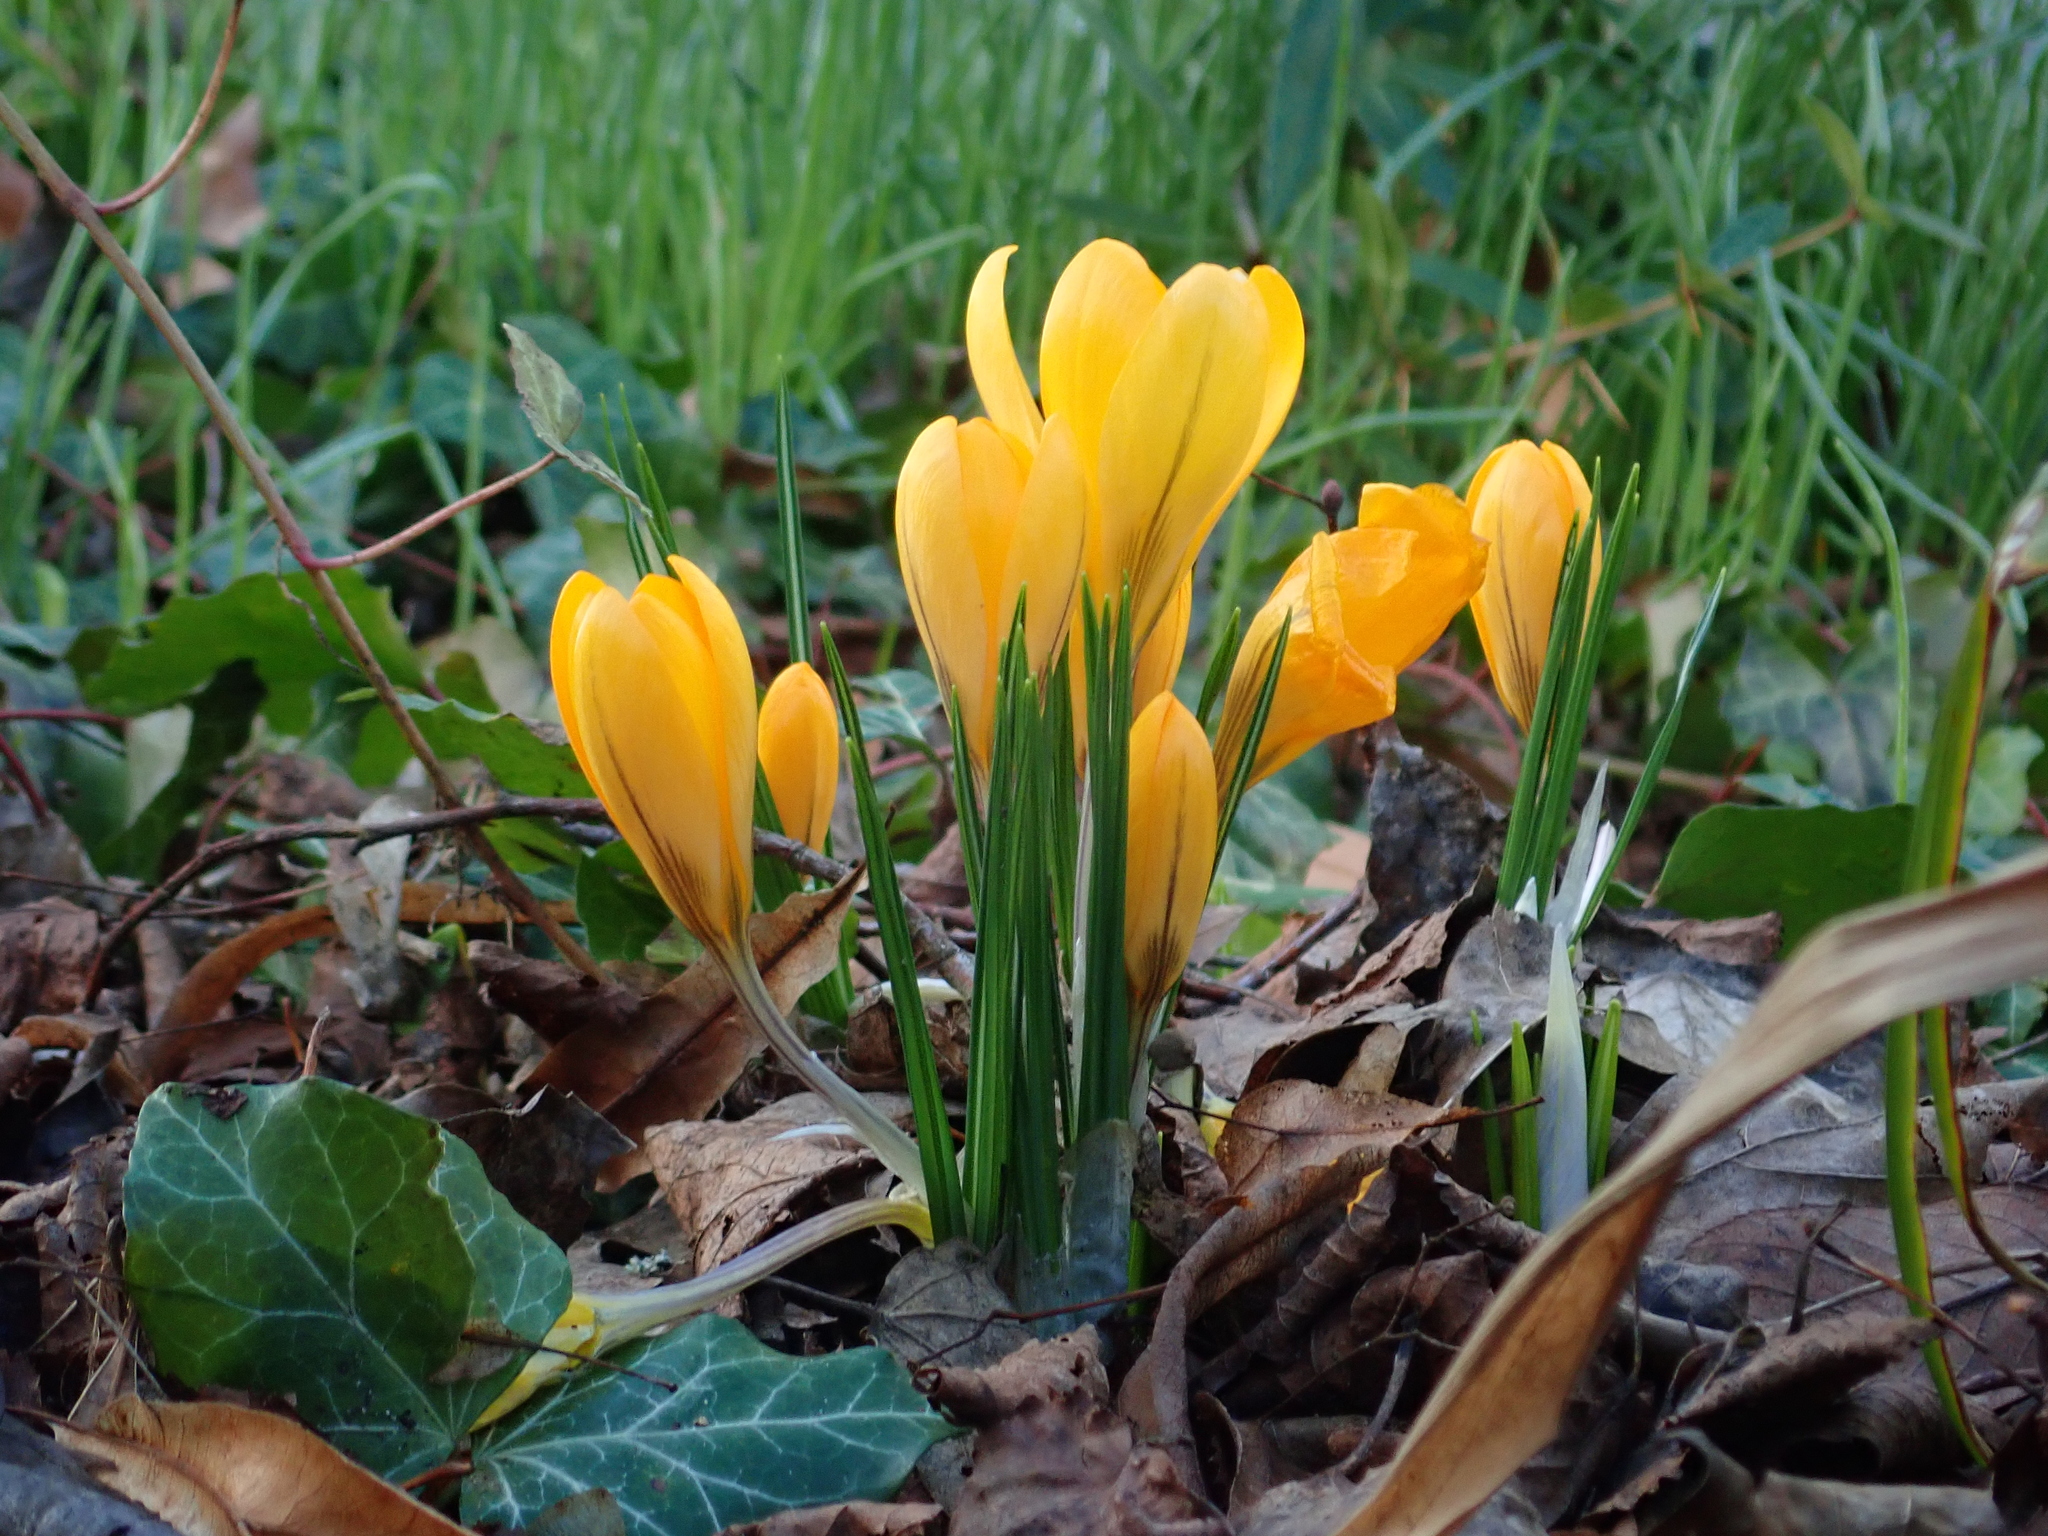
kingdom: Plantae
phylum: Tracheophyta
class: Liliopsida
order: Asparagales
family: Iridaceae
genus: Crocus
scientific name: Crocus luteus
